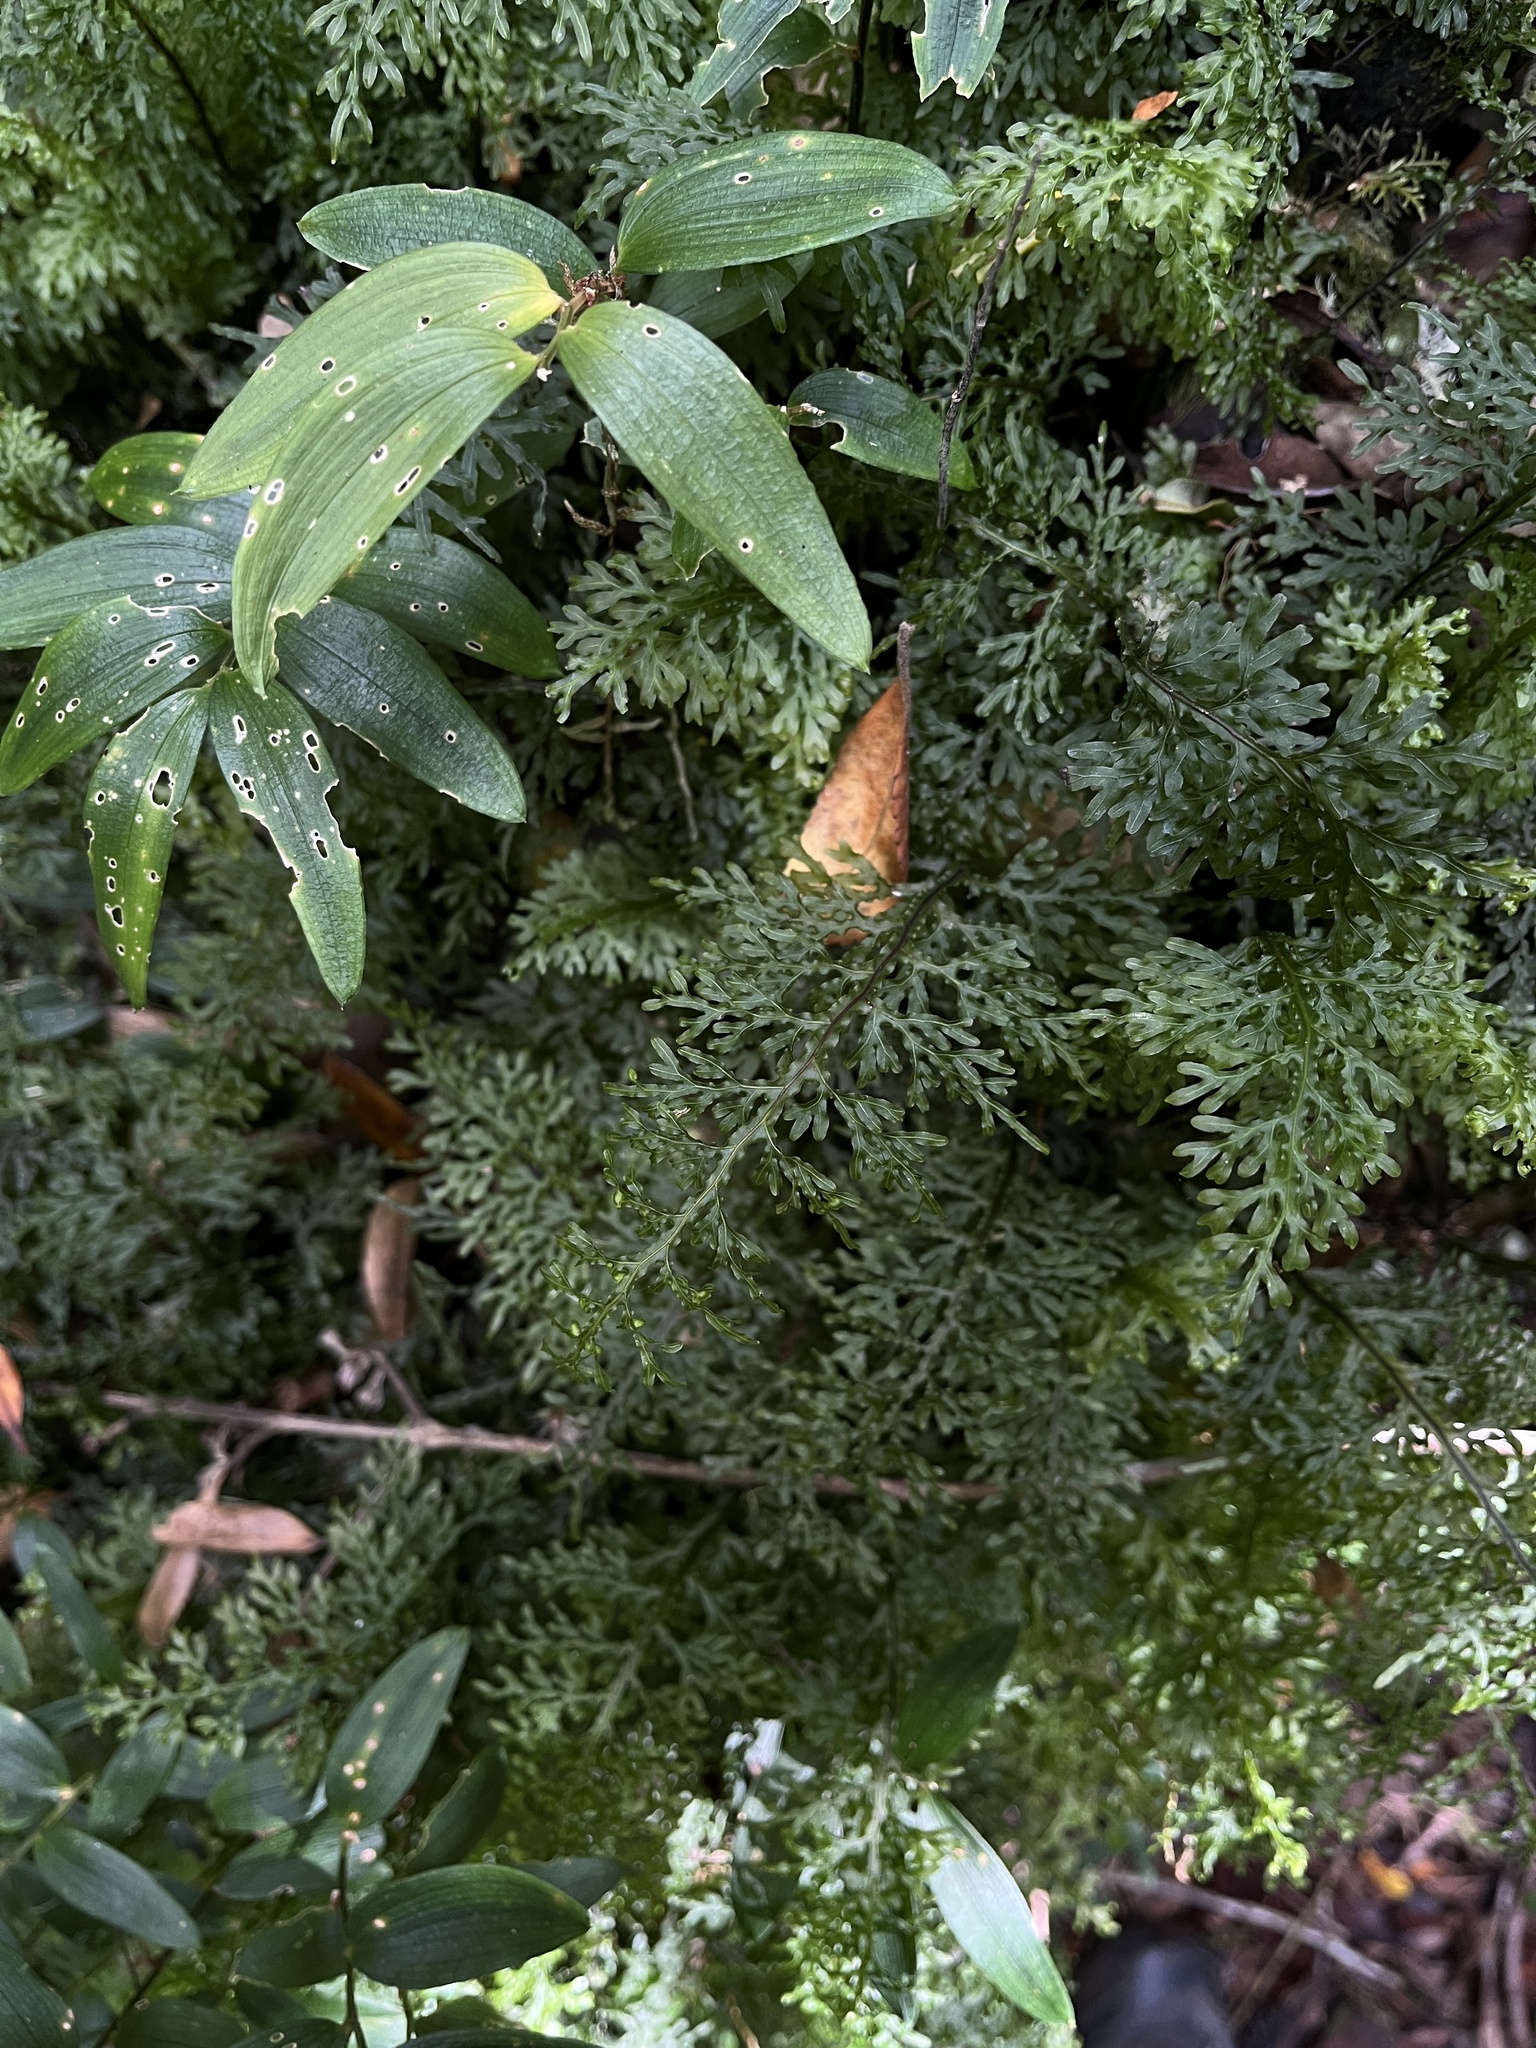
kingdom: Plantae
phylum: Tracheophyta
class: Polypodiopsida
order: Hymenophyllales
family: Hymenophyllaceae
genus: Hymenophyllum
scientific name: Hymenophyllum caudiculatum
